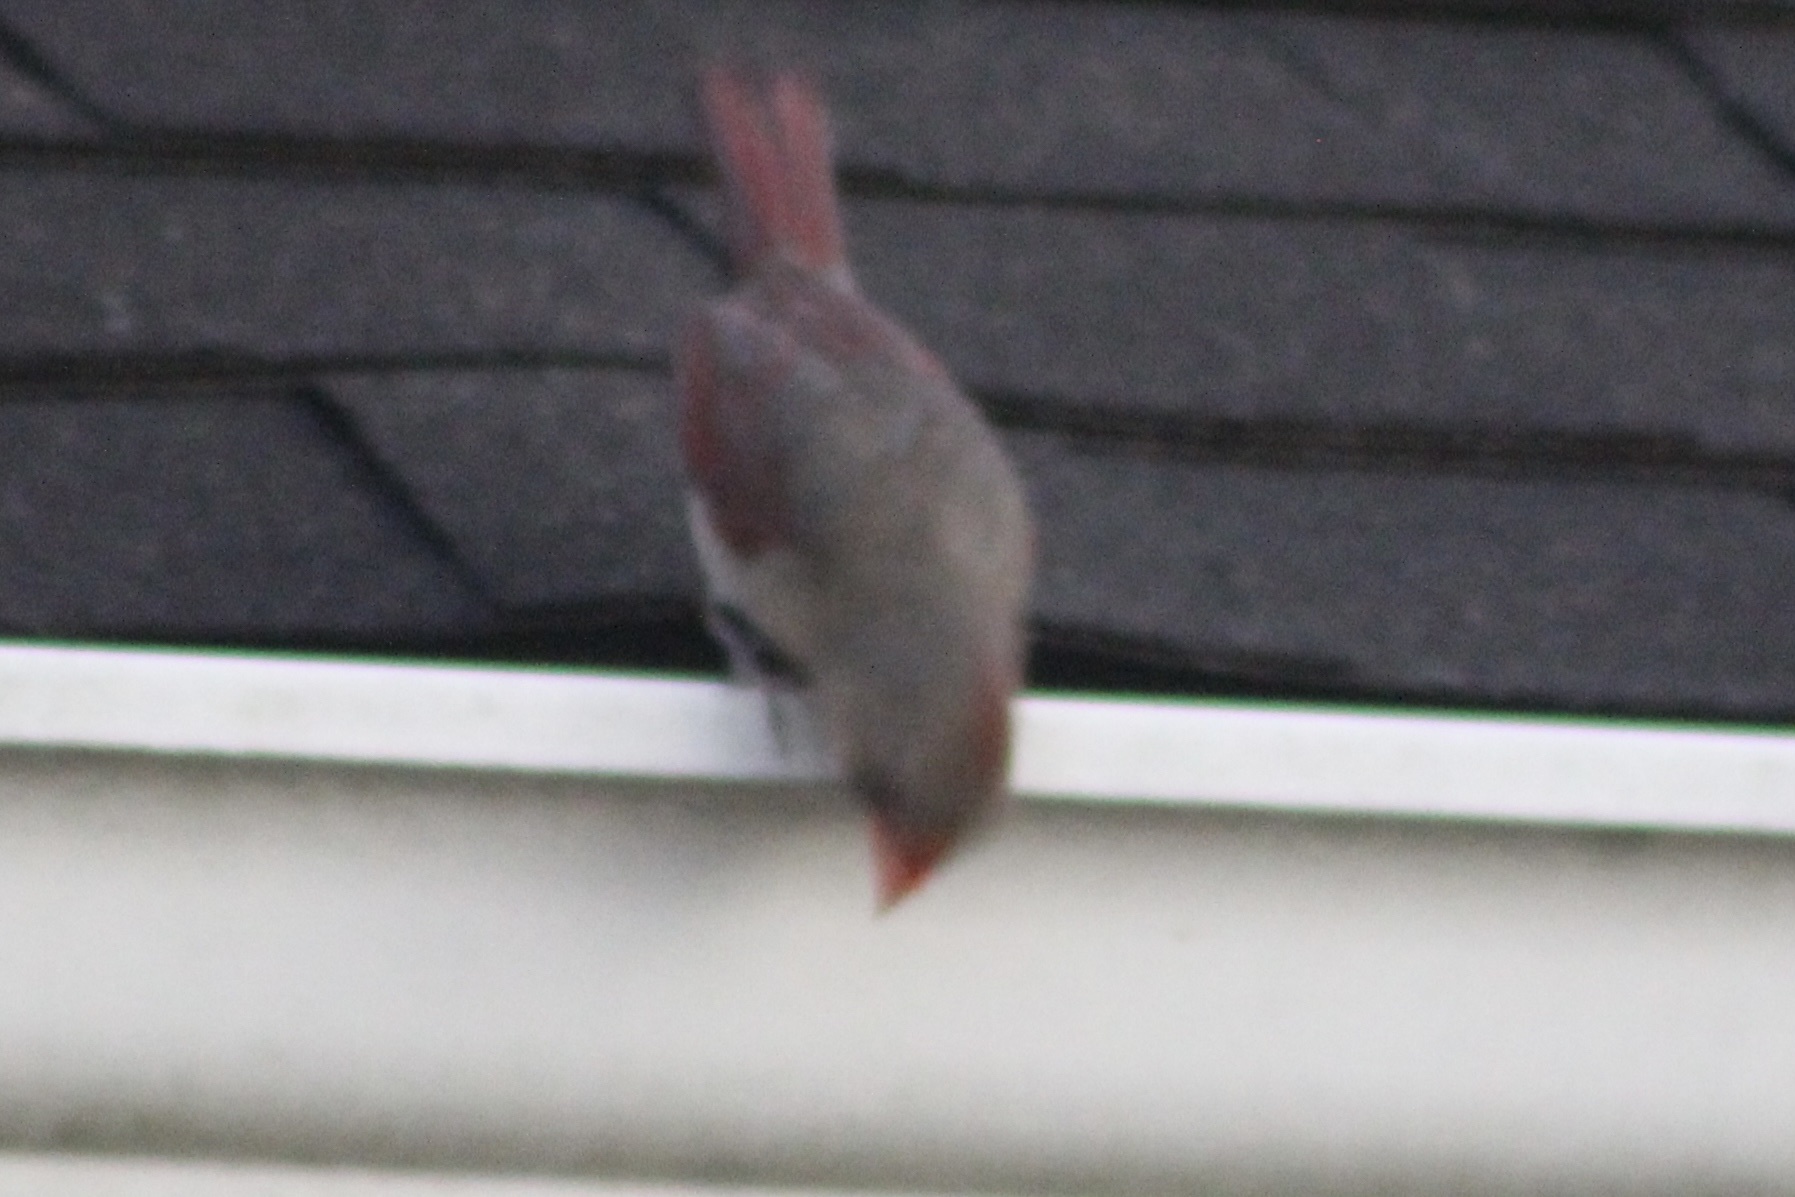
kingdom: Animalia
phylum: Chordata
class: Aves
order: Passeriformes
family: Cardinalidae
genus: Cardinalis
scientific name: Cardinalis cardinalis
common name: Northern cardinal
